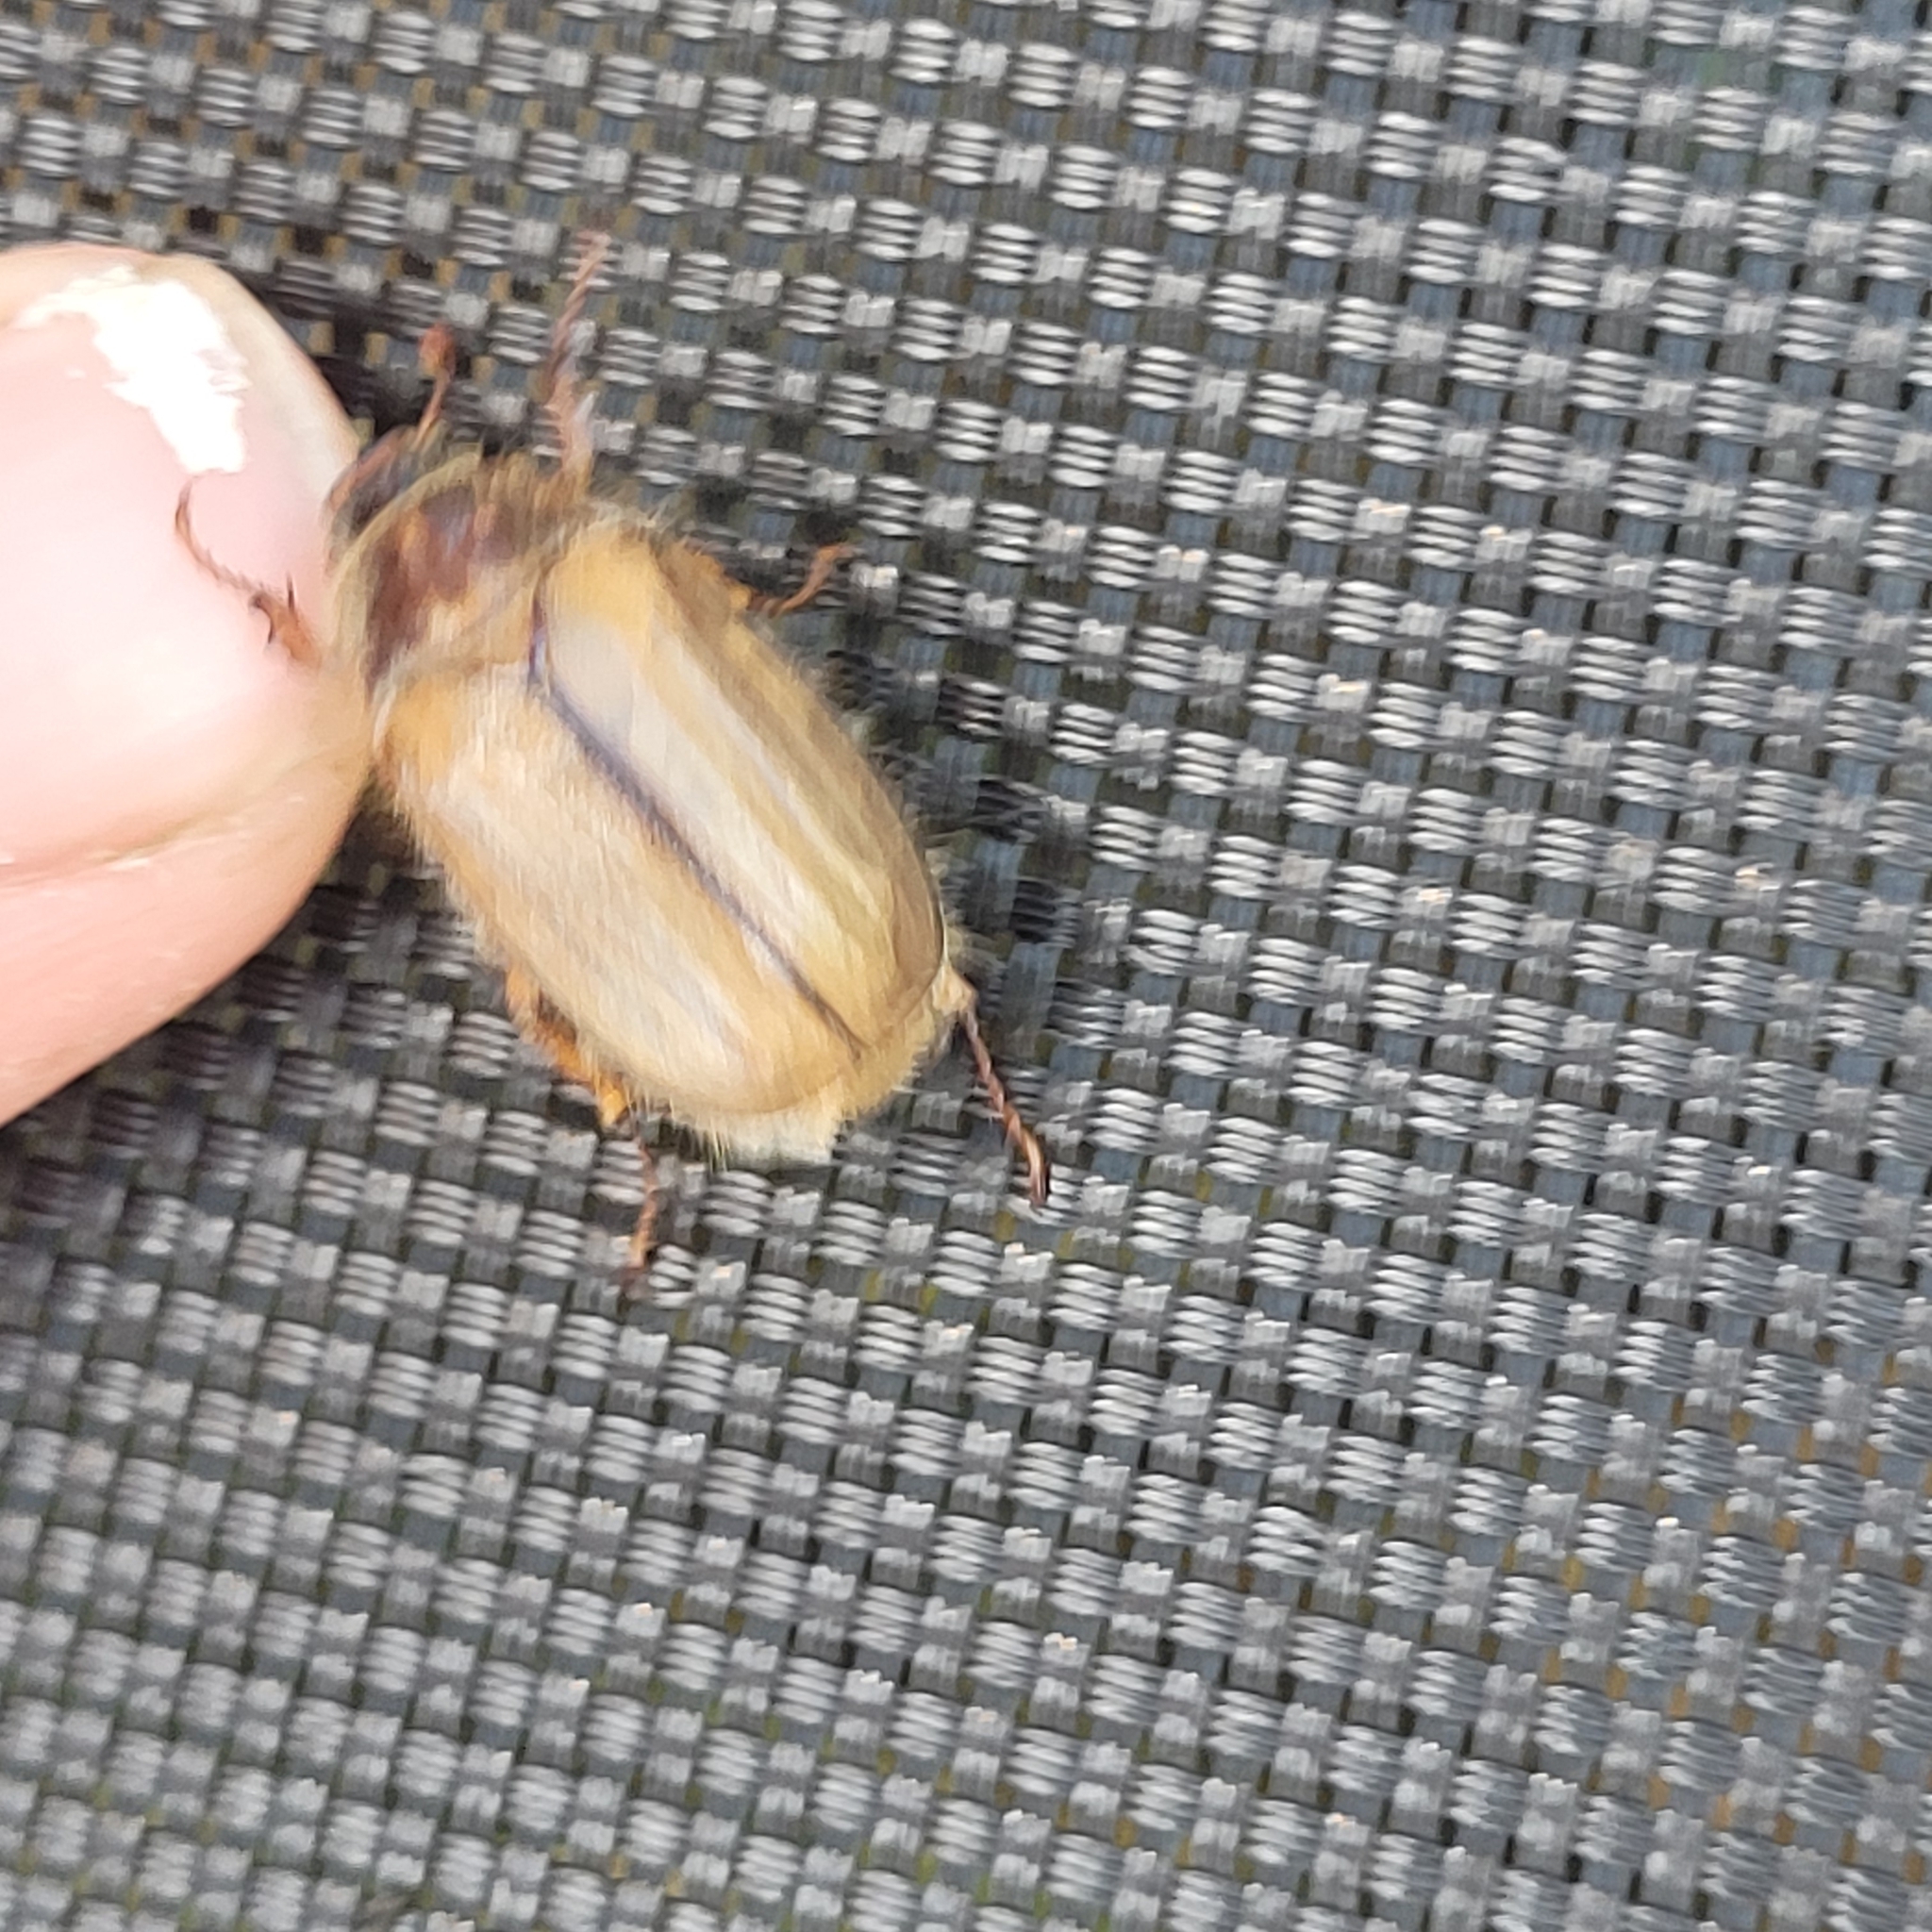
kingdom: Animalia
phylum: Arthropoda
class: Insecta
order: Coleoptera
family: Scarabaeidae
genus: Amphimallon
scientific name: Amphimallon solstitiale
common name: Summer chafer
